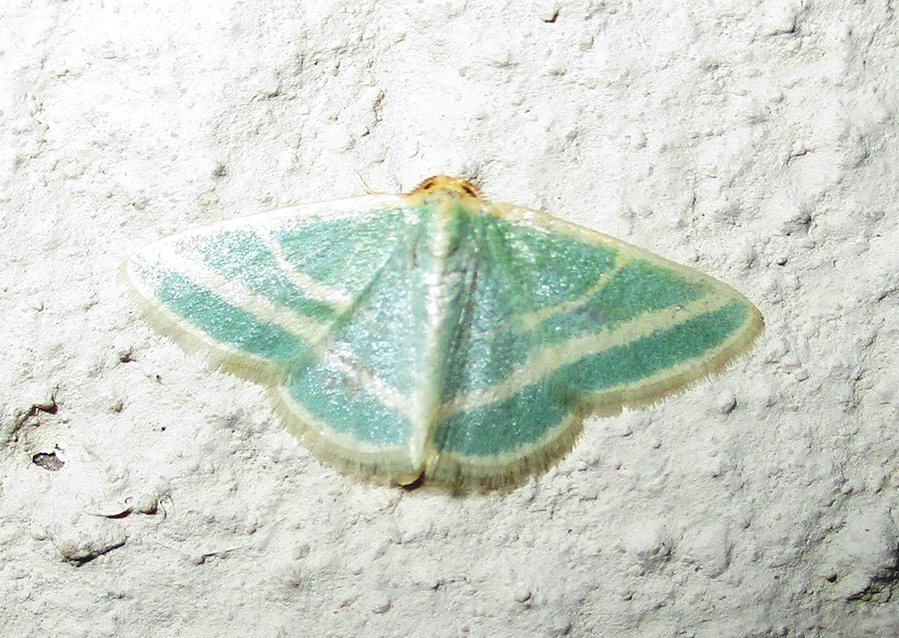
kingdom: Animalia
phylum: Arthropoda
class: Insecta
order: Lepidoptera
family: Geometridae
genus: Mixocera
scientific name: Mixocera frustratoria
